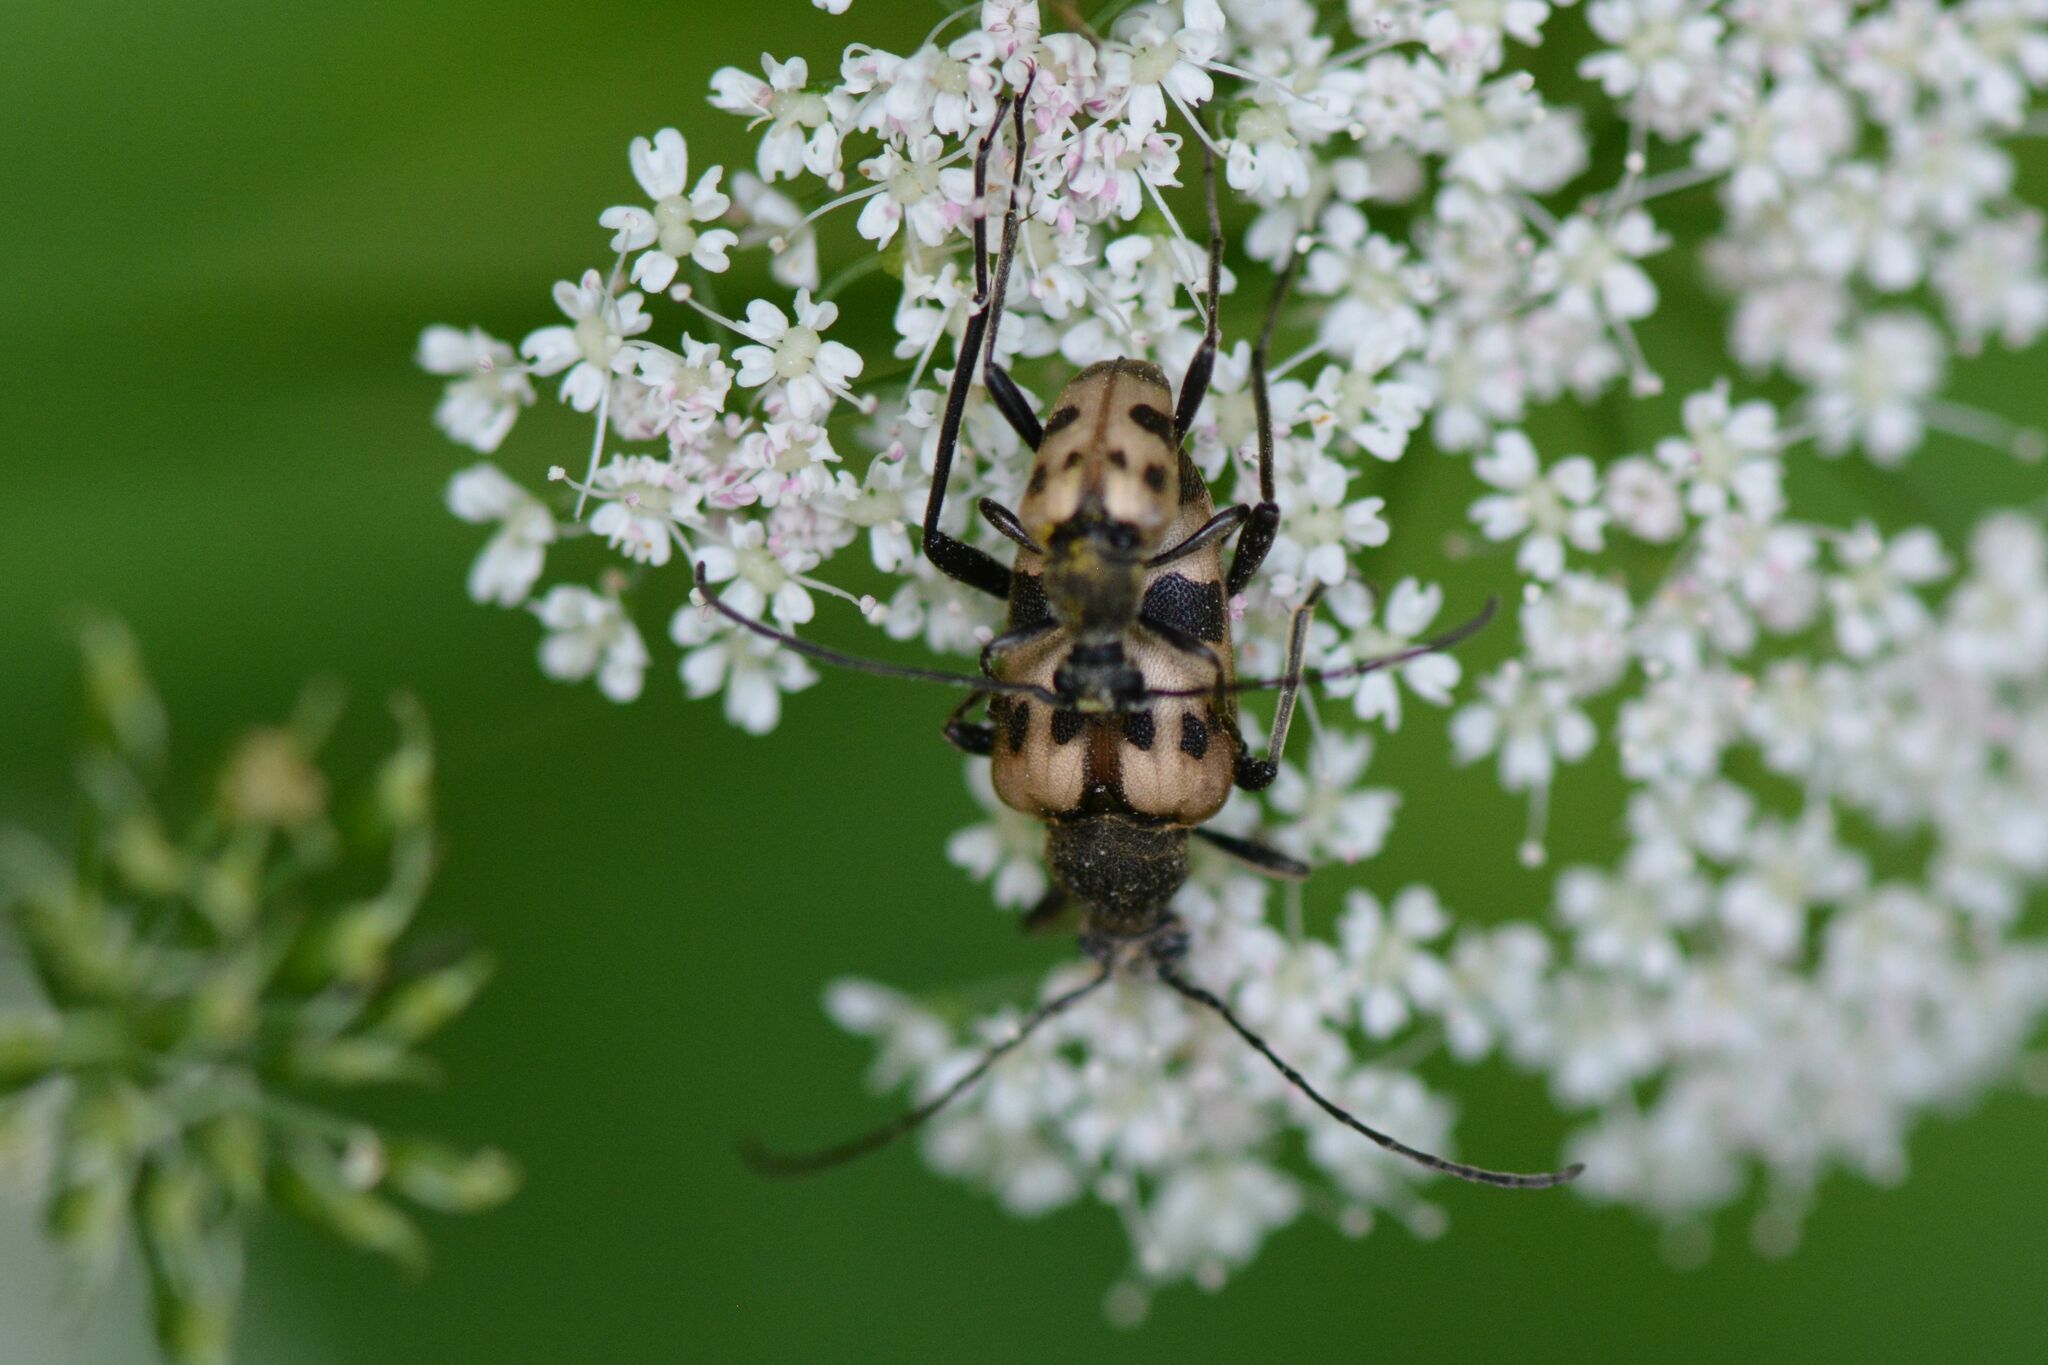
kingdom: Animalia
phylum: Arthropoda
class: Insecta
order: Coleoptera
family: Cerambycidae
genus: Pachytodes
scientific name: Pachytodes cerambyciformis
